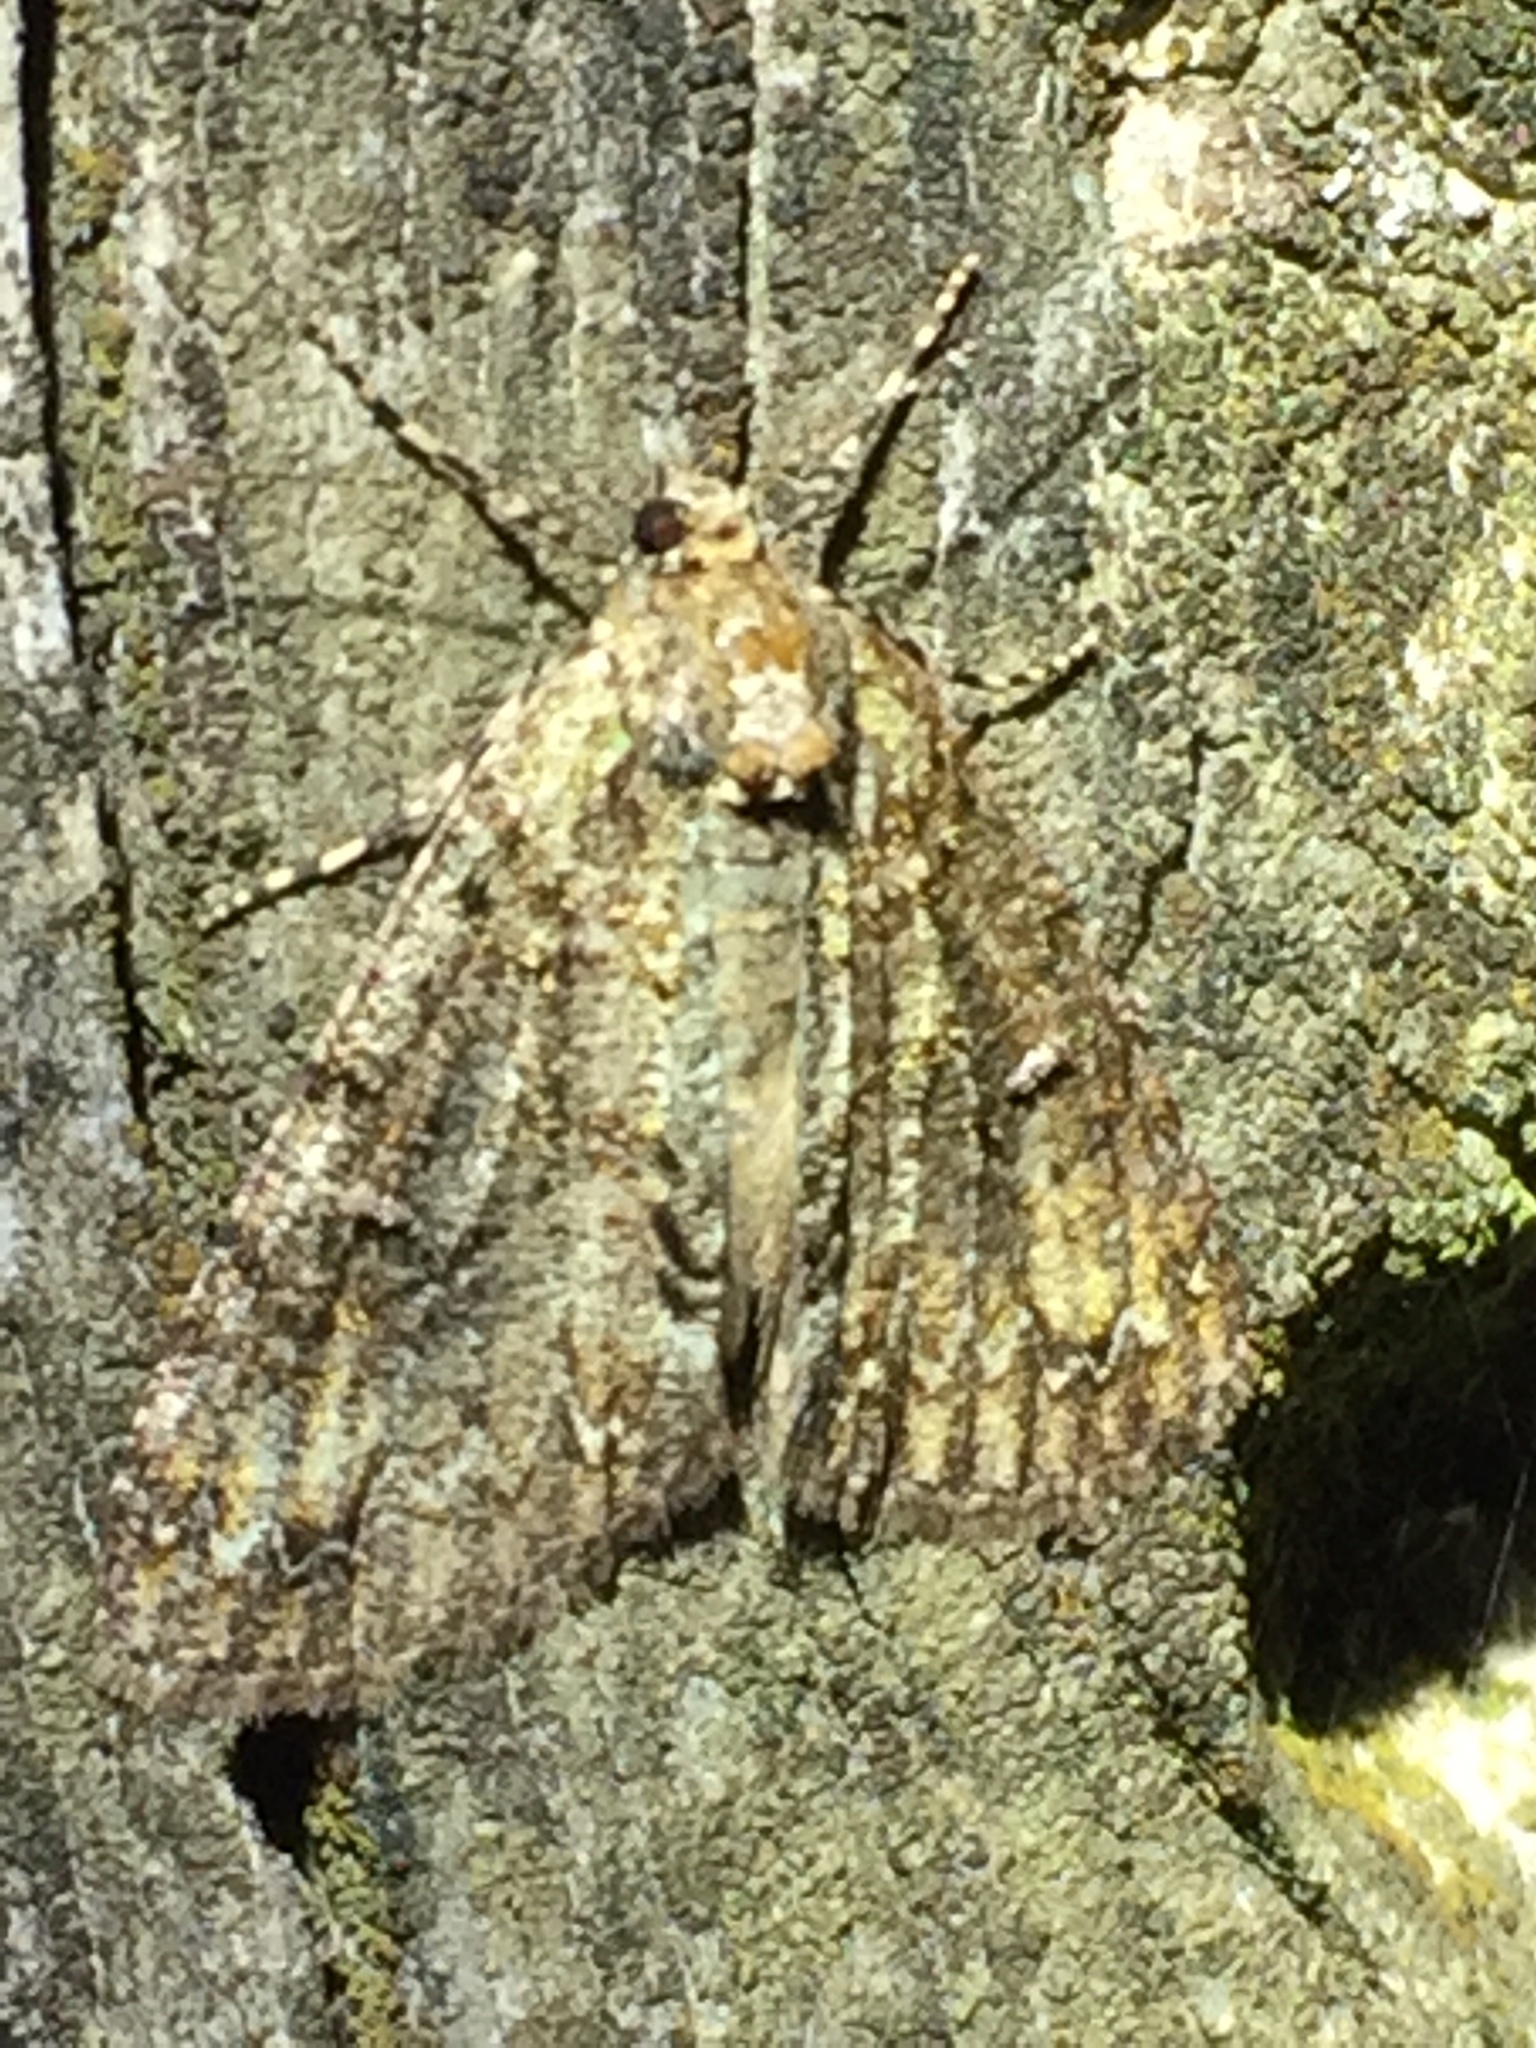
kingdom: Animalia
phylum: Arthropoda
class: Insecta
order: Lepidoptera
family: Geometridae
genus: Pseudocoremia
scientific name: Pseudocoremia suavis
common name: Common forest looper
